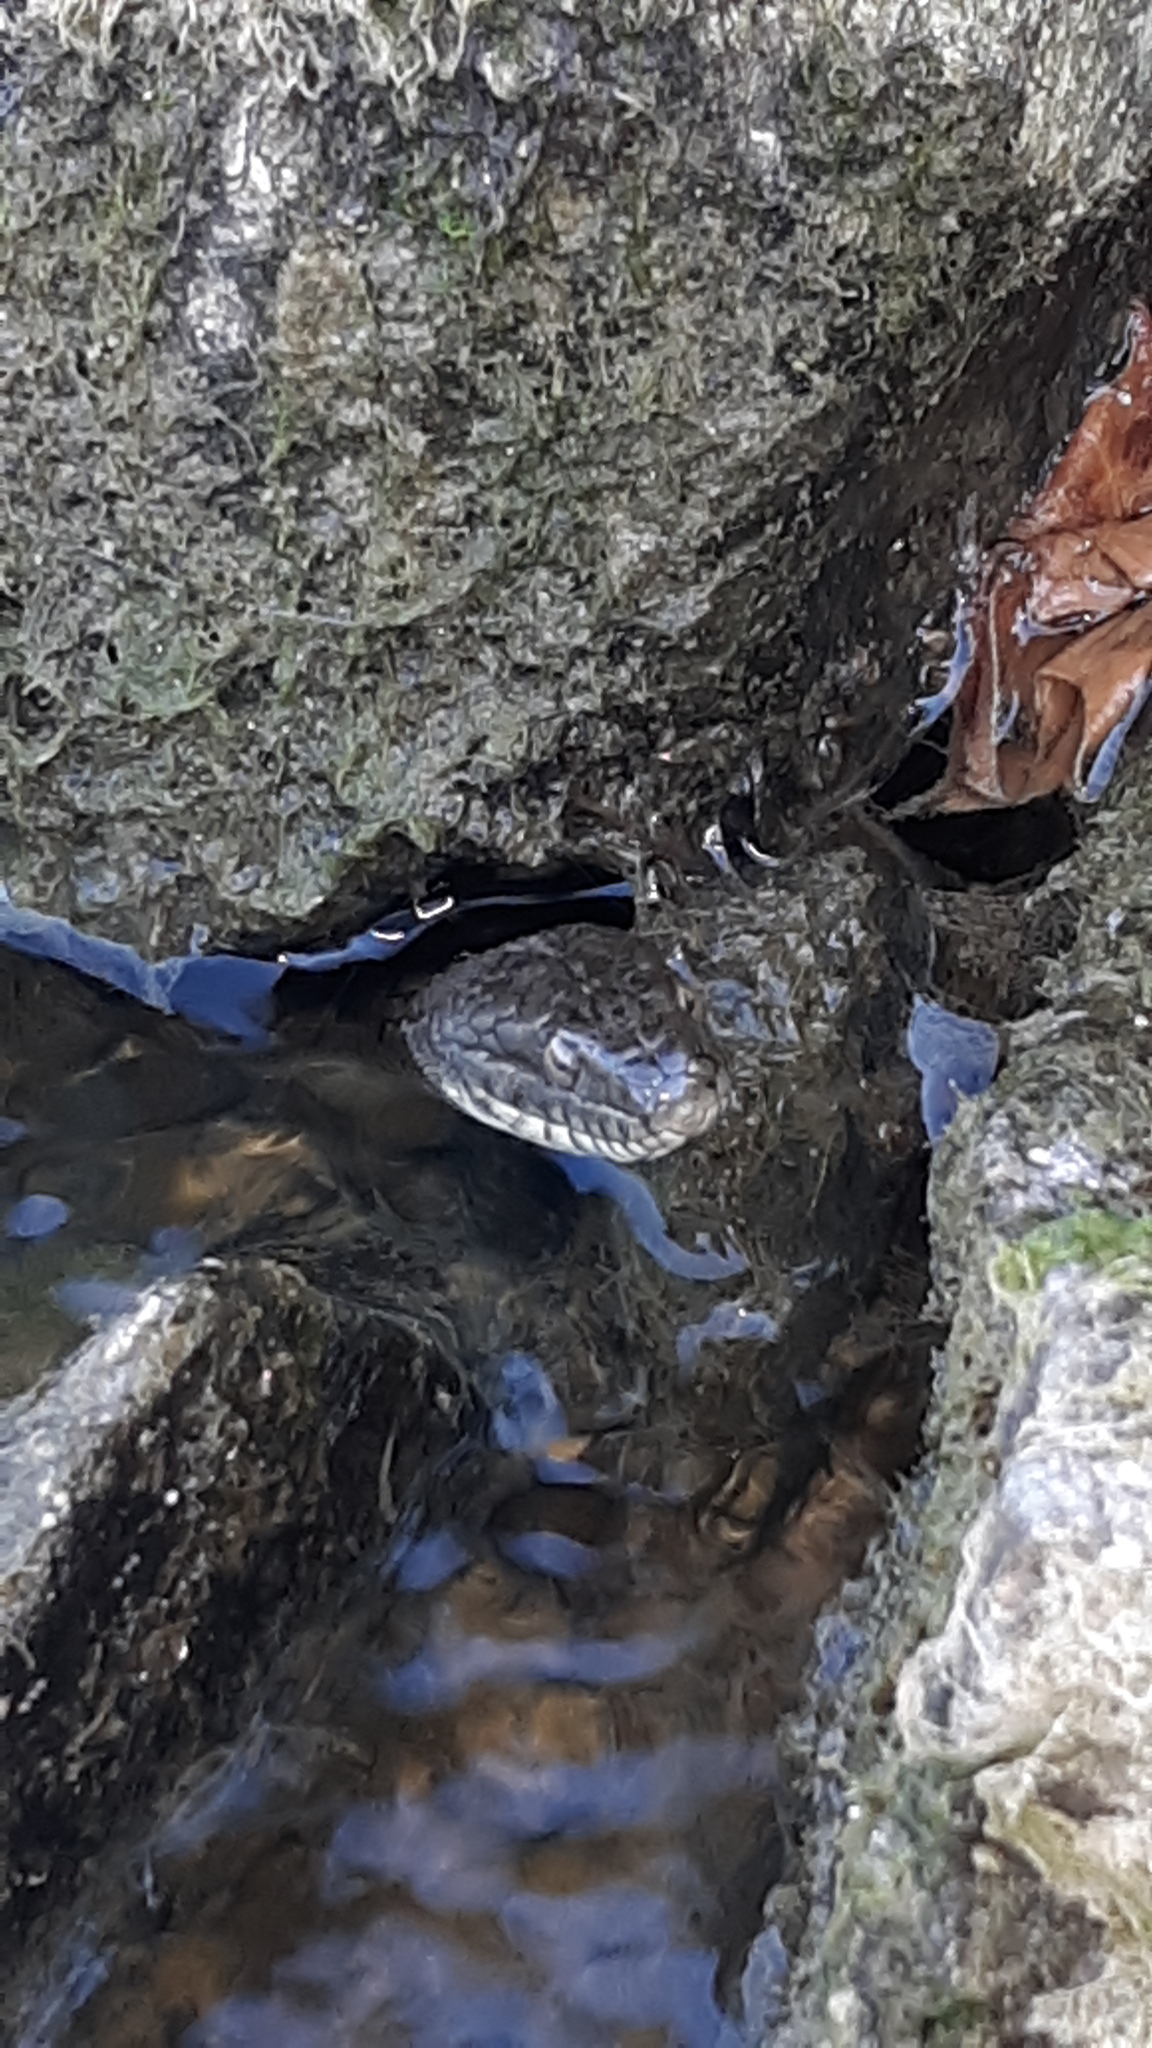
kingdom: Animalia
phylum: Chordata
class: Squamata
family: Colubridae
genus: Nerodia
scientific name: Nerodia sipedon
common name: Northern water snake
